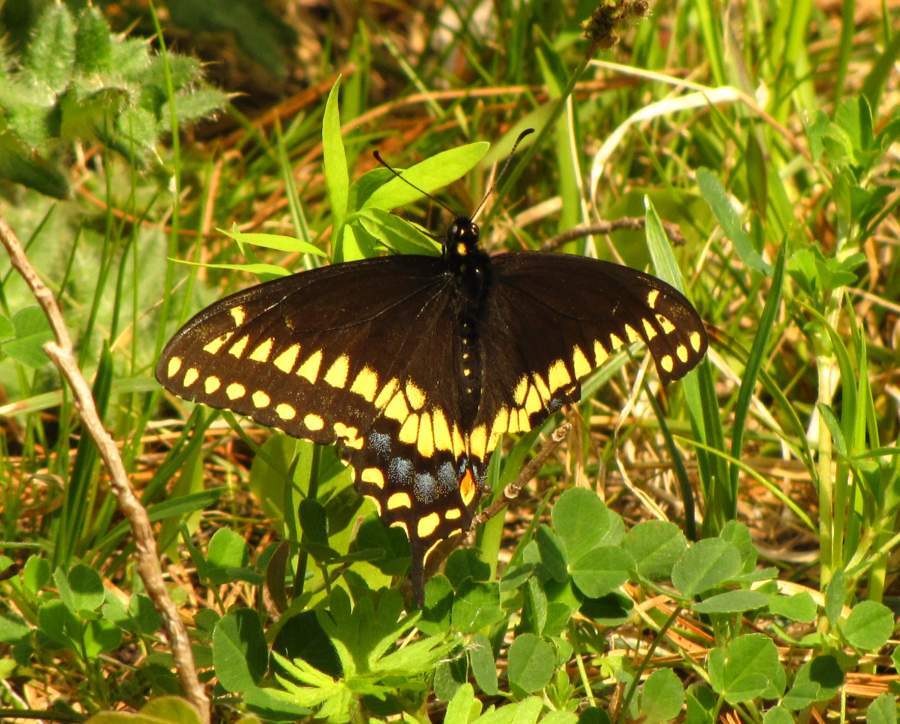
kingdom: Animalia
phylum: Arthropoda
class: Insecta
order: Lepidoptera
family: Papilionidae
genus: Papilio
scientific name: Papilio polyxenes
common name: Black swallowtail
